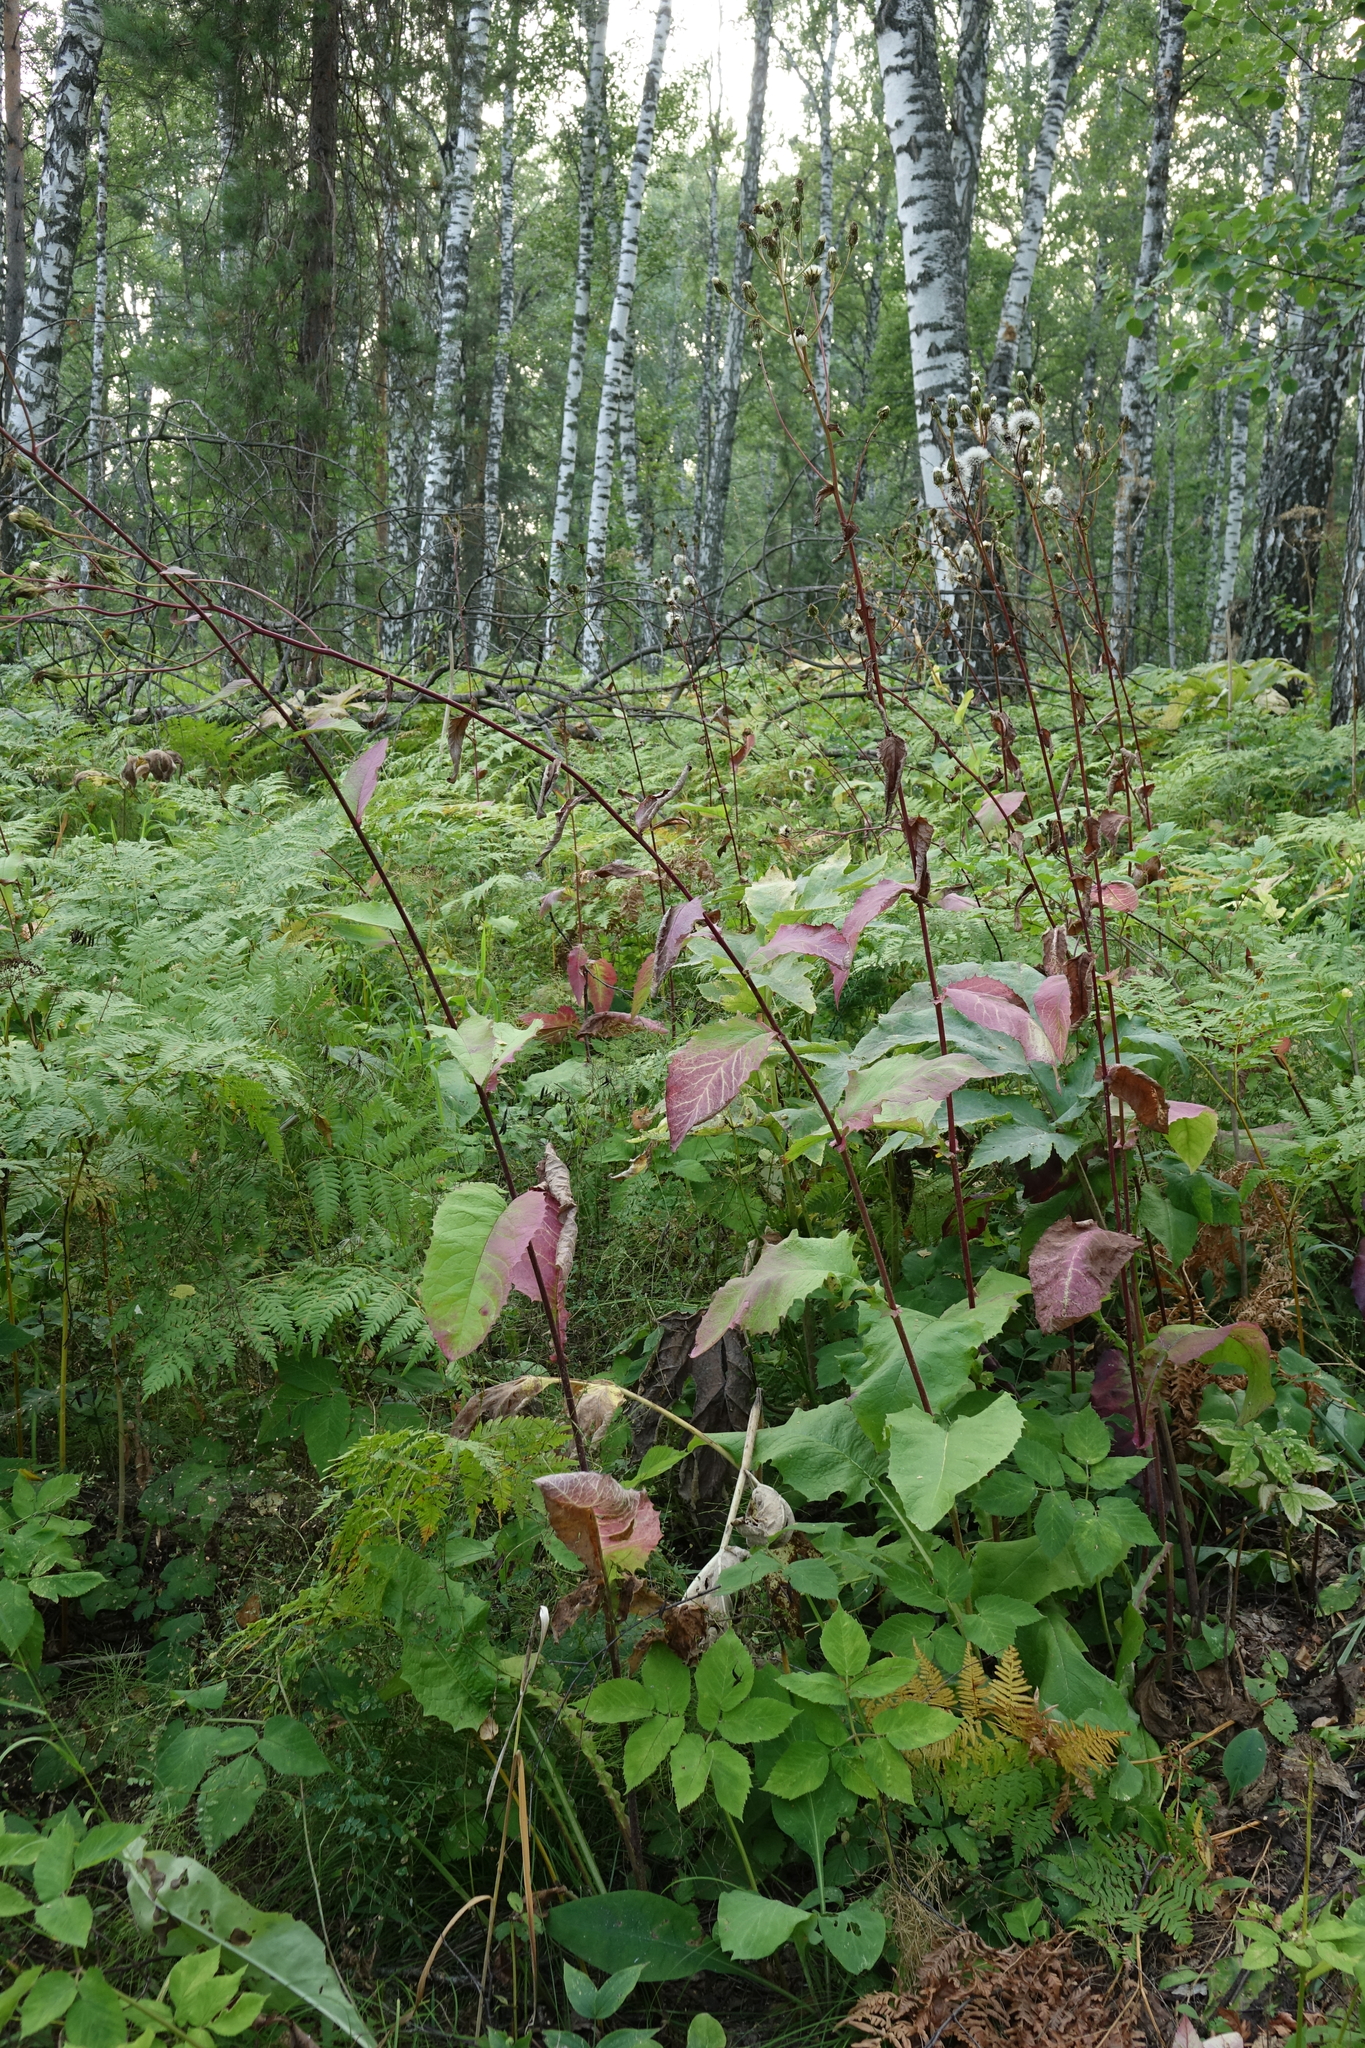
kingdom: Plantae
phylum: Tracheophyta
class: Magnoliopsida
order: Asterales
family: Asteraceae
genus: Crepis
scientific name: Crepis sibirica
